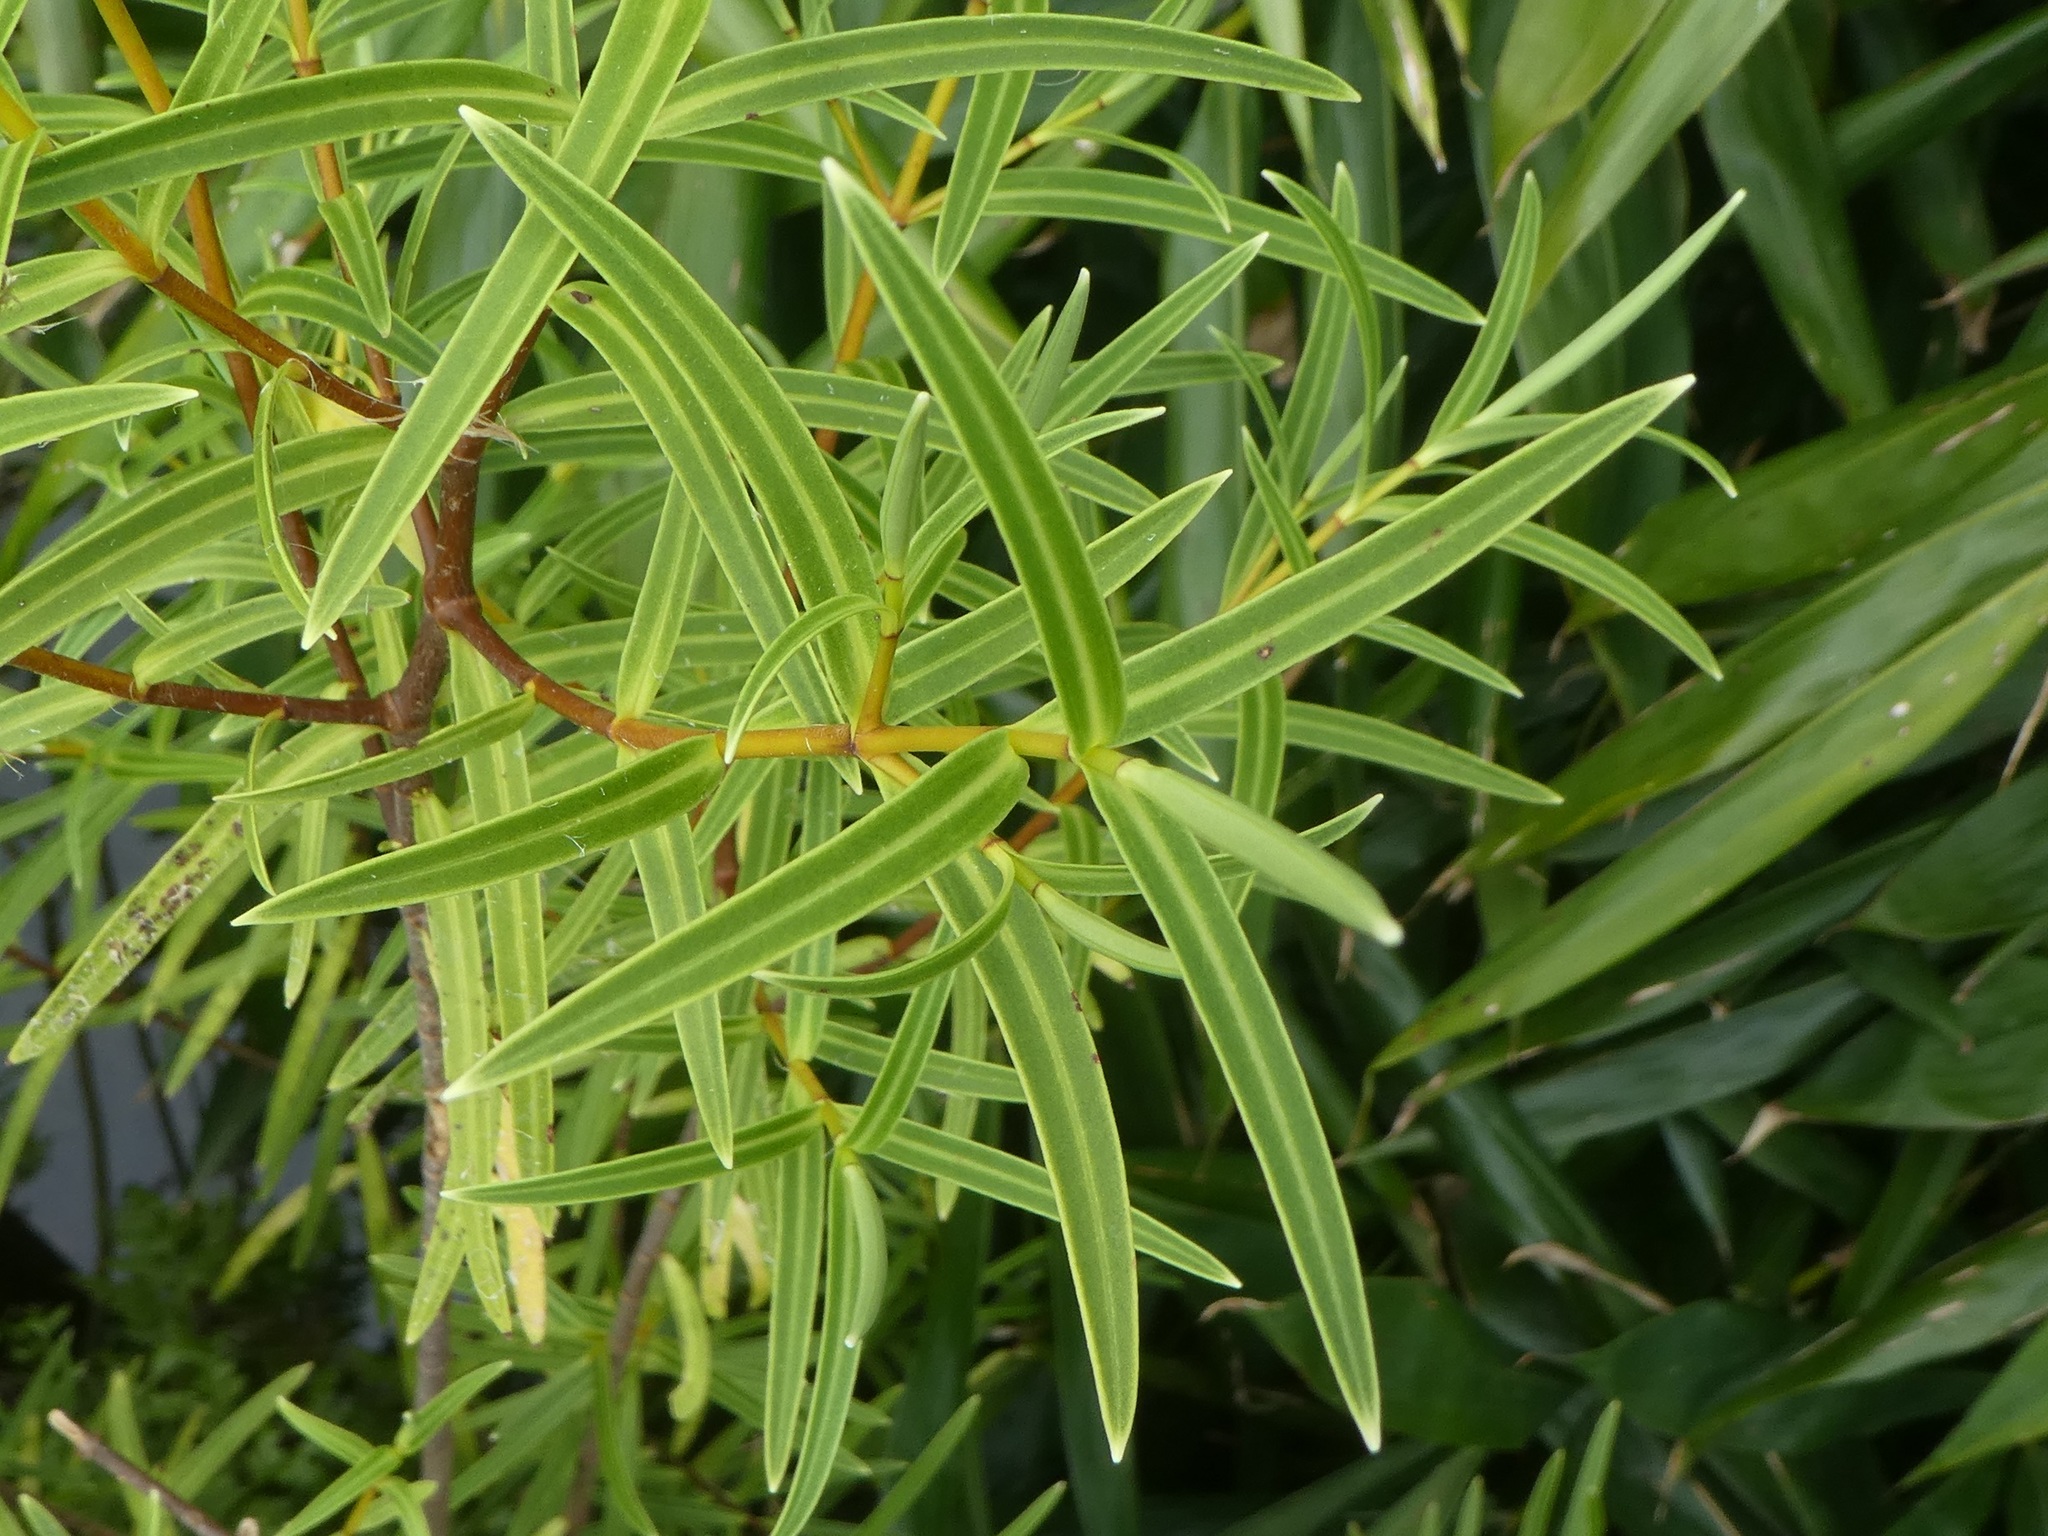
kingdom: Plantae
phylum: Tracheophyta
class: Magnoliopsida
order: Lamiales
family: Plantaginaceae
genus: Veronica
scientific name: Veronica parviflora
